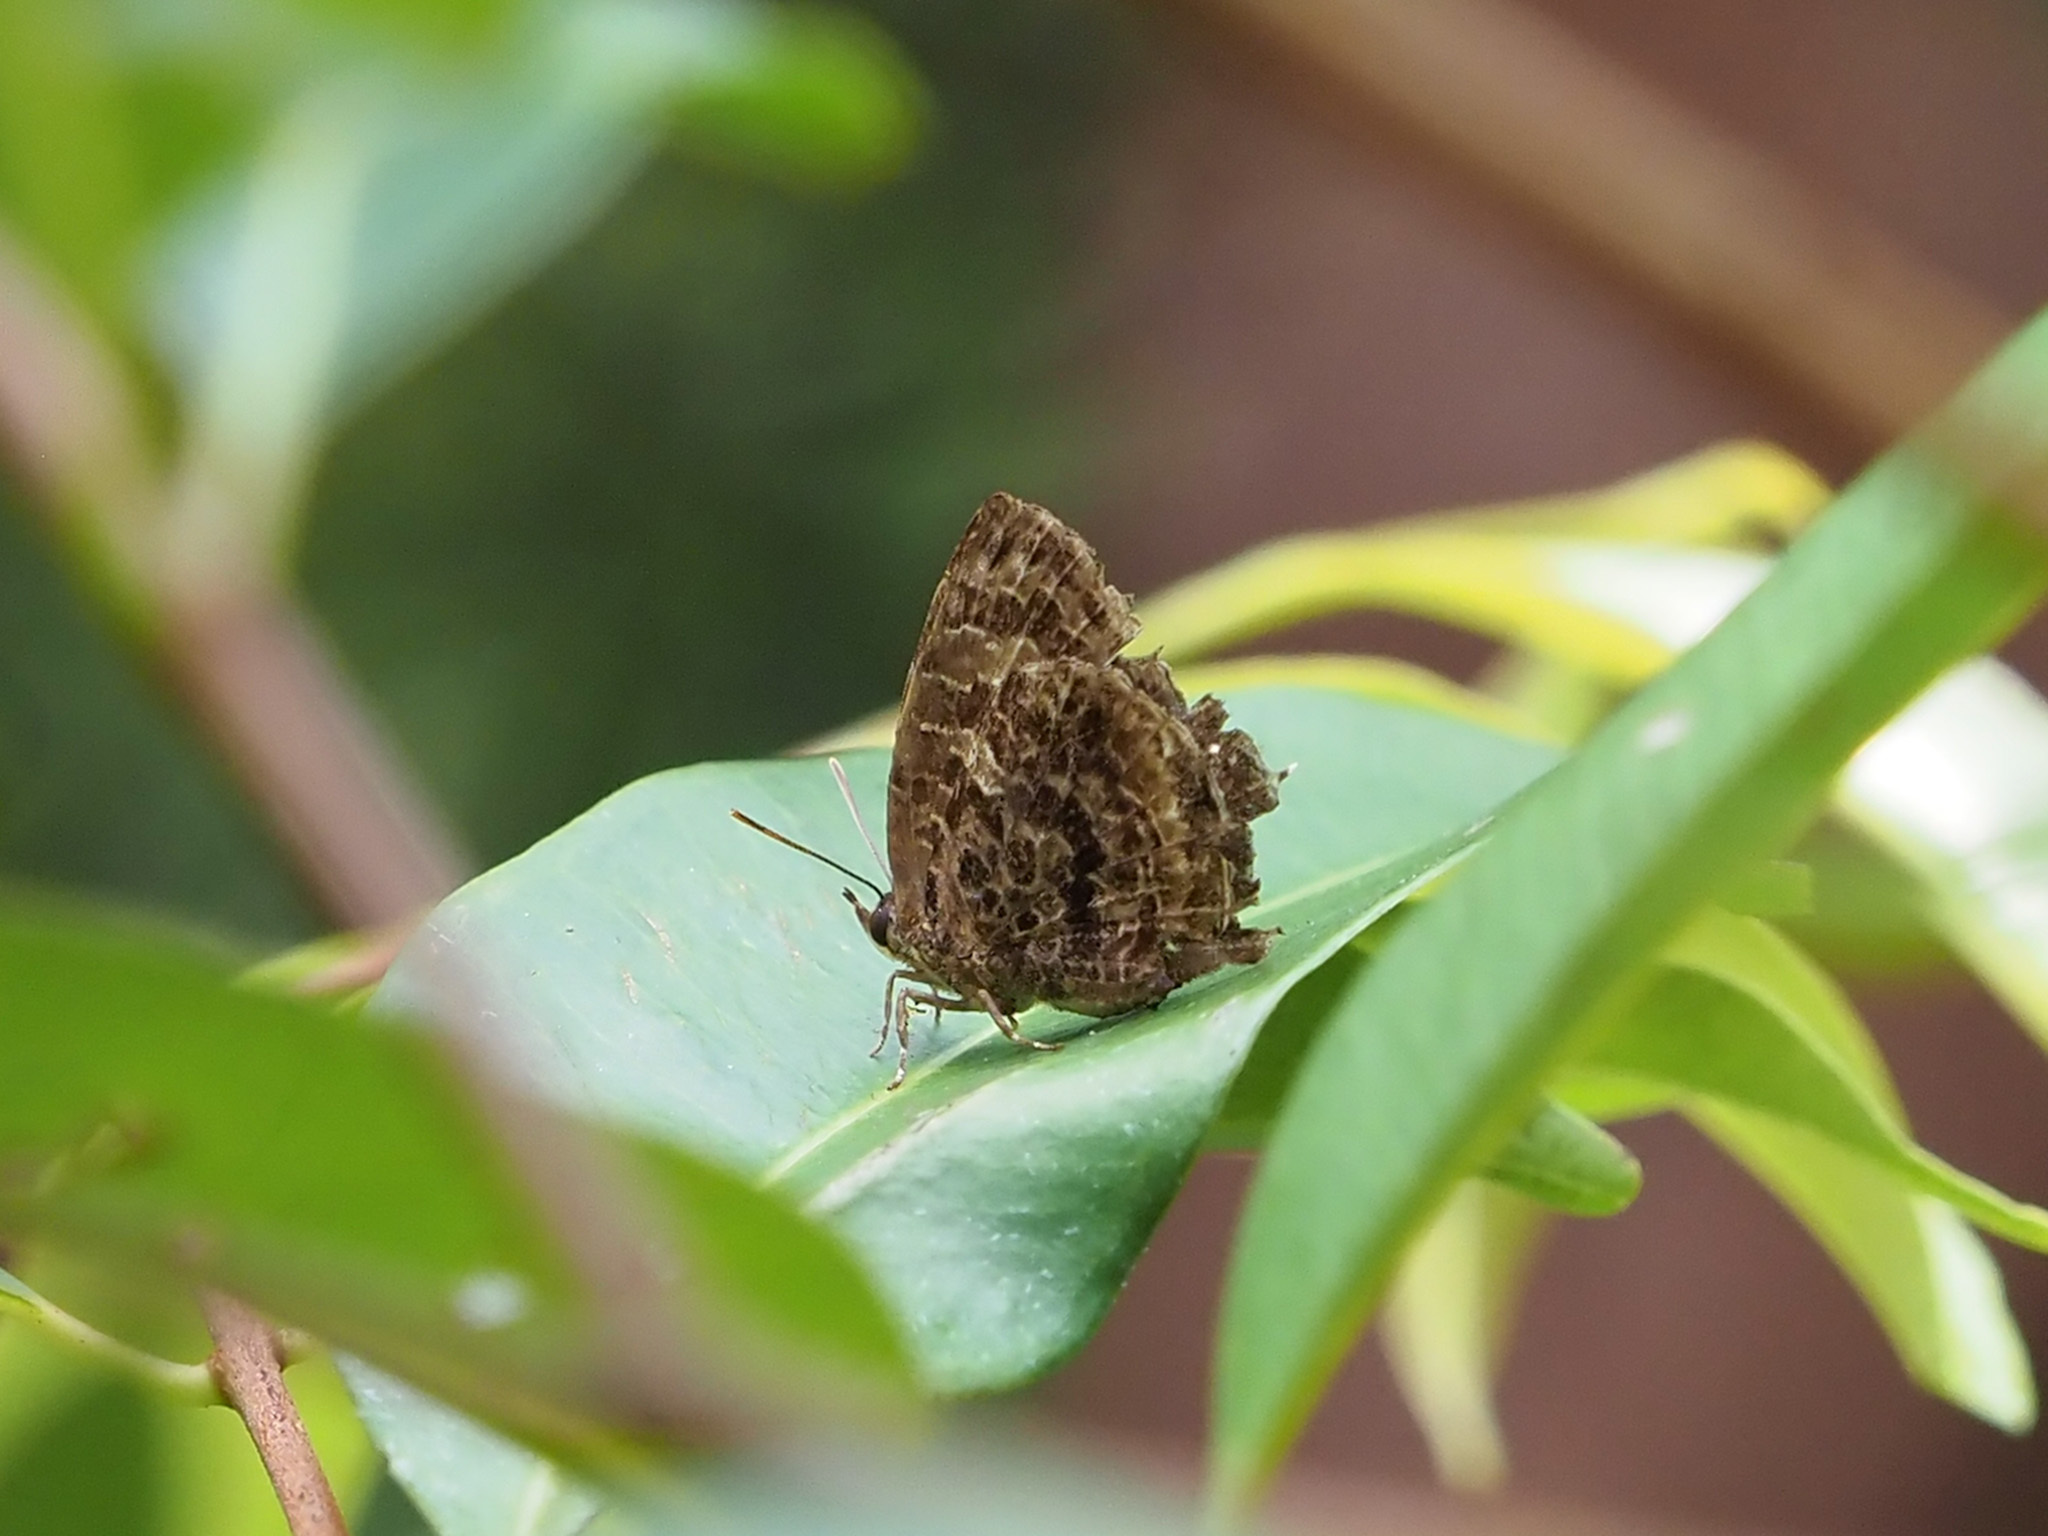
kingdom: Animalia
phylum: Arthropoda
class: Insecta
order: Lepidoptera
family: Lycaenidae
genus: Arhopala
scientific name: Arhopala abseus
